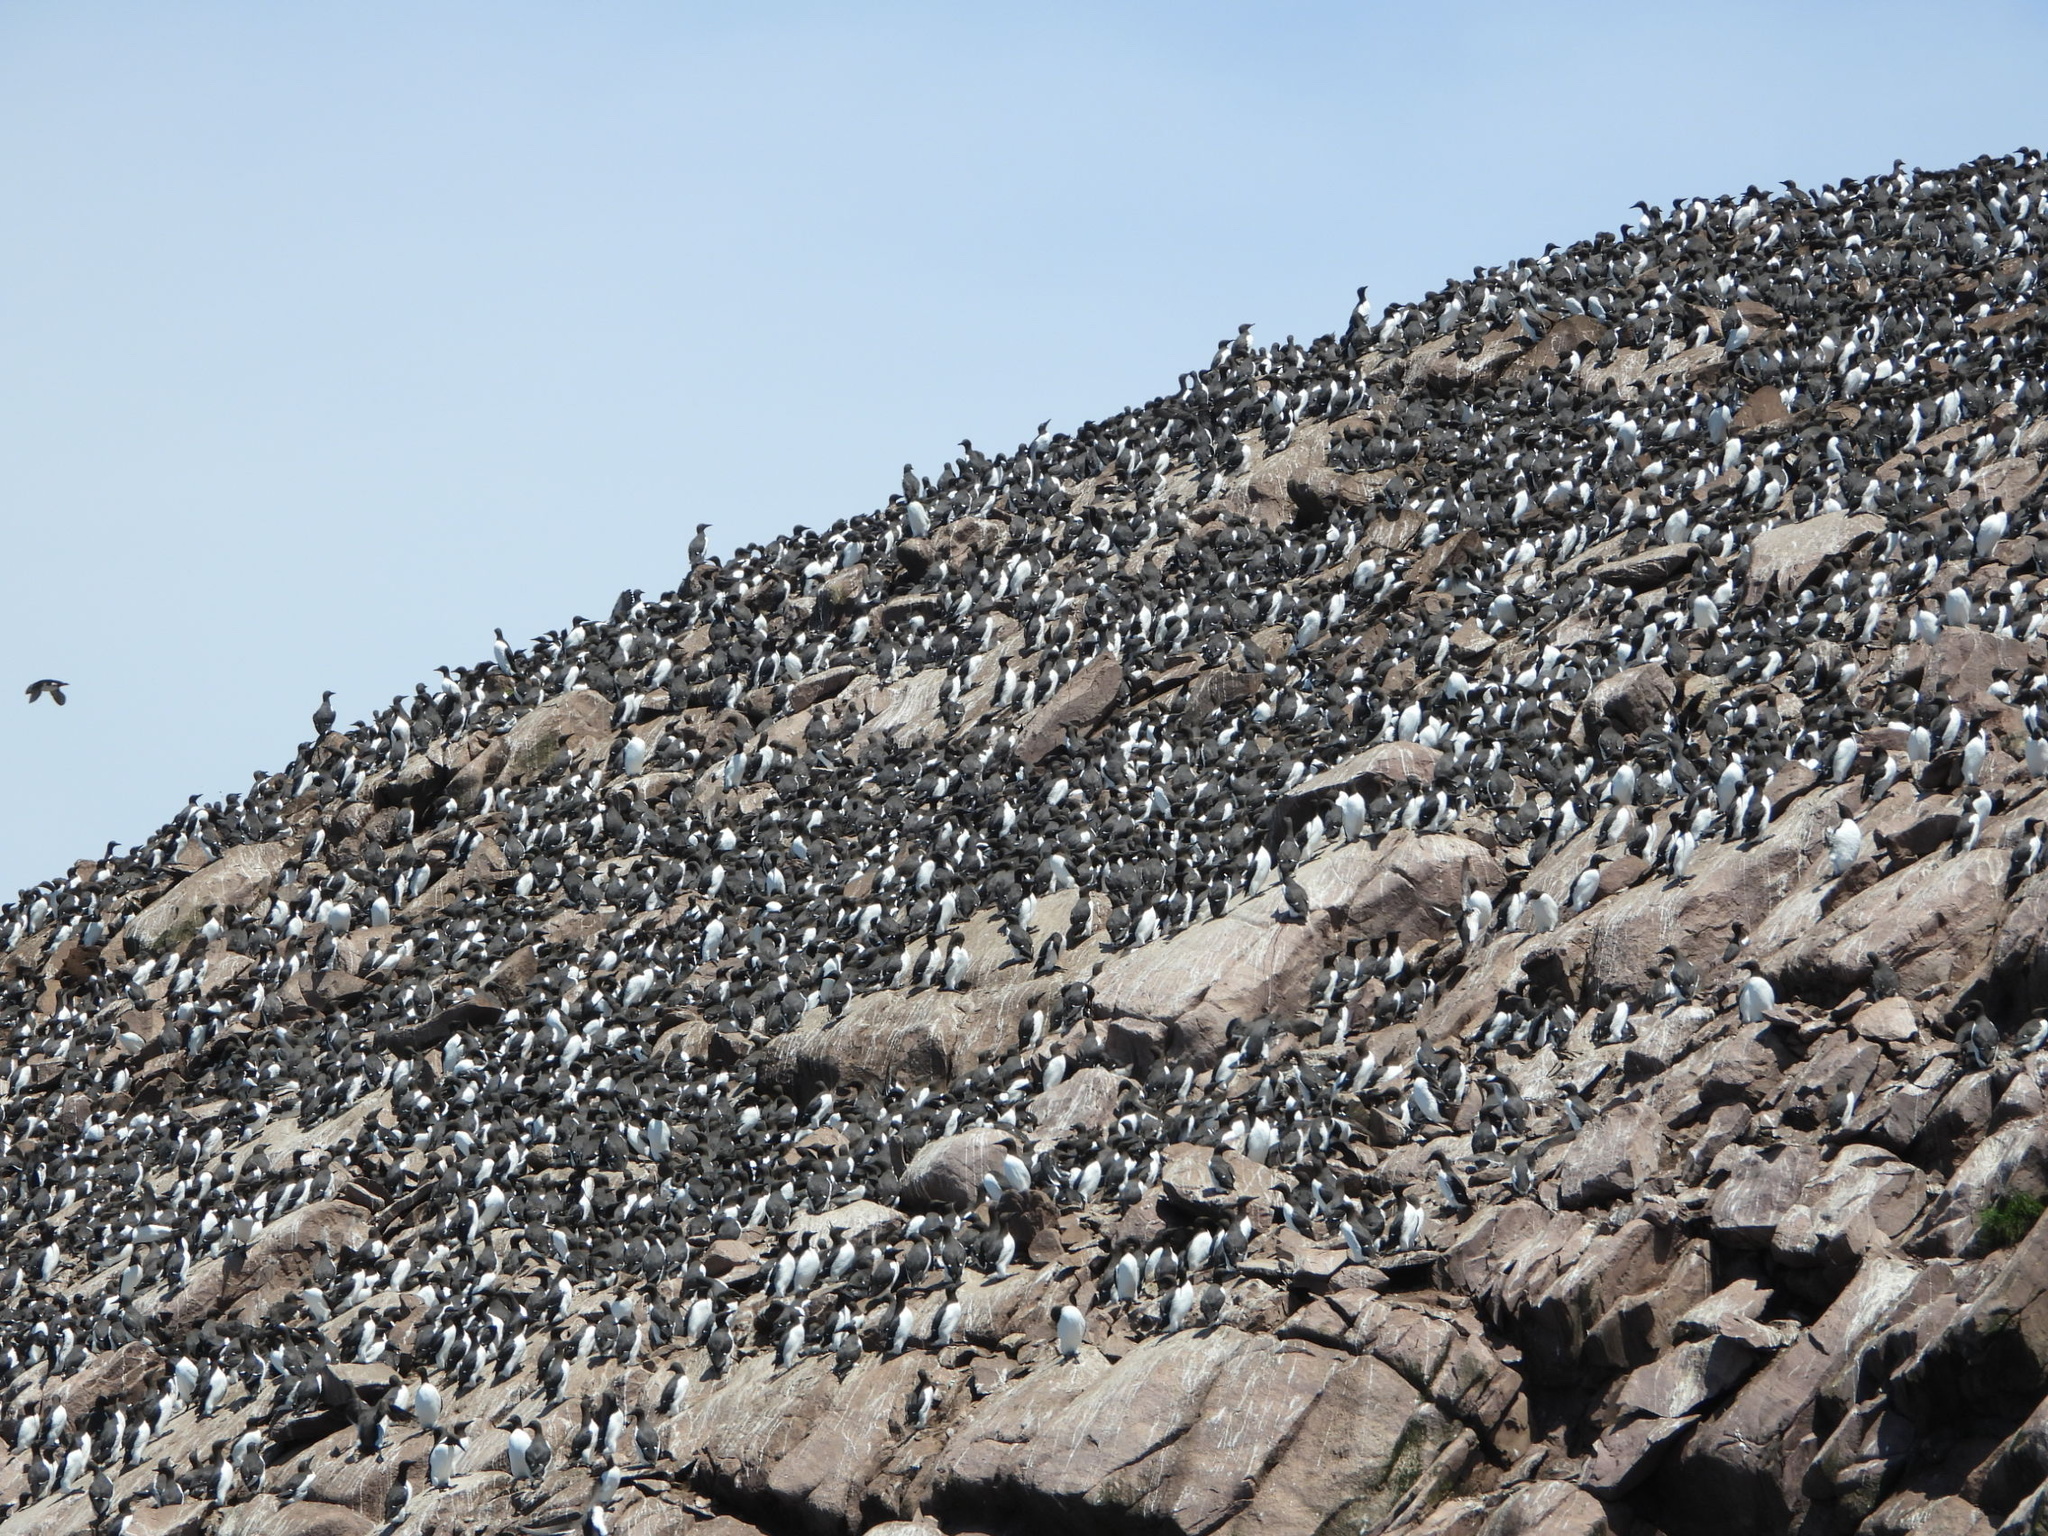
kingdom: Animalia
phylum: Chordata
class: Aves
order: Charadriiformes
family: Alcidae
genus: Uria
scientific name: Uria aalge
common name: Common murre
